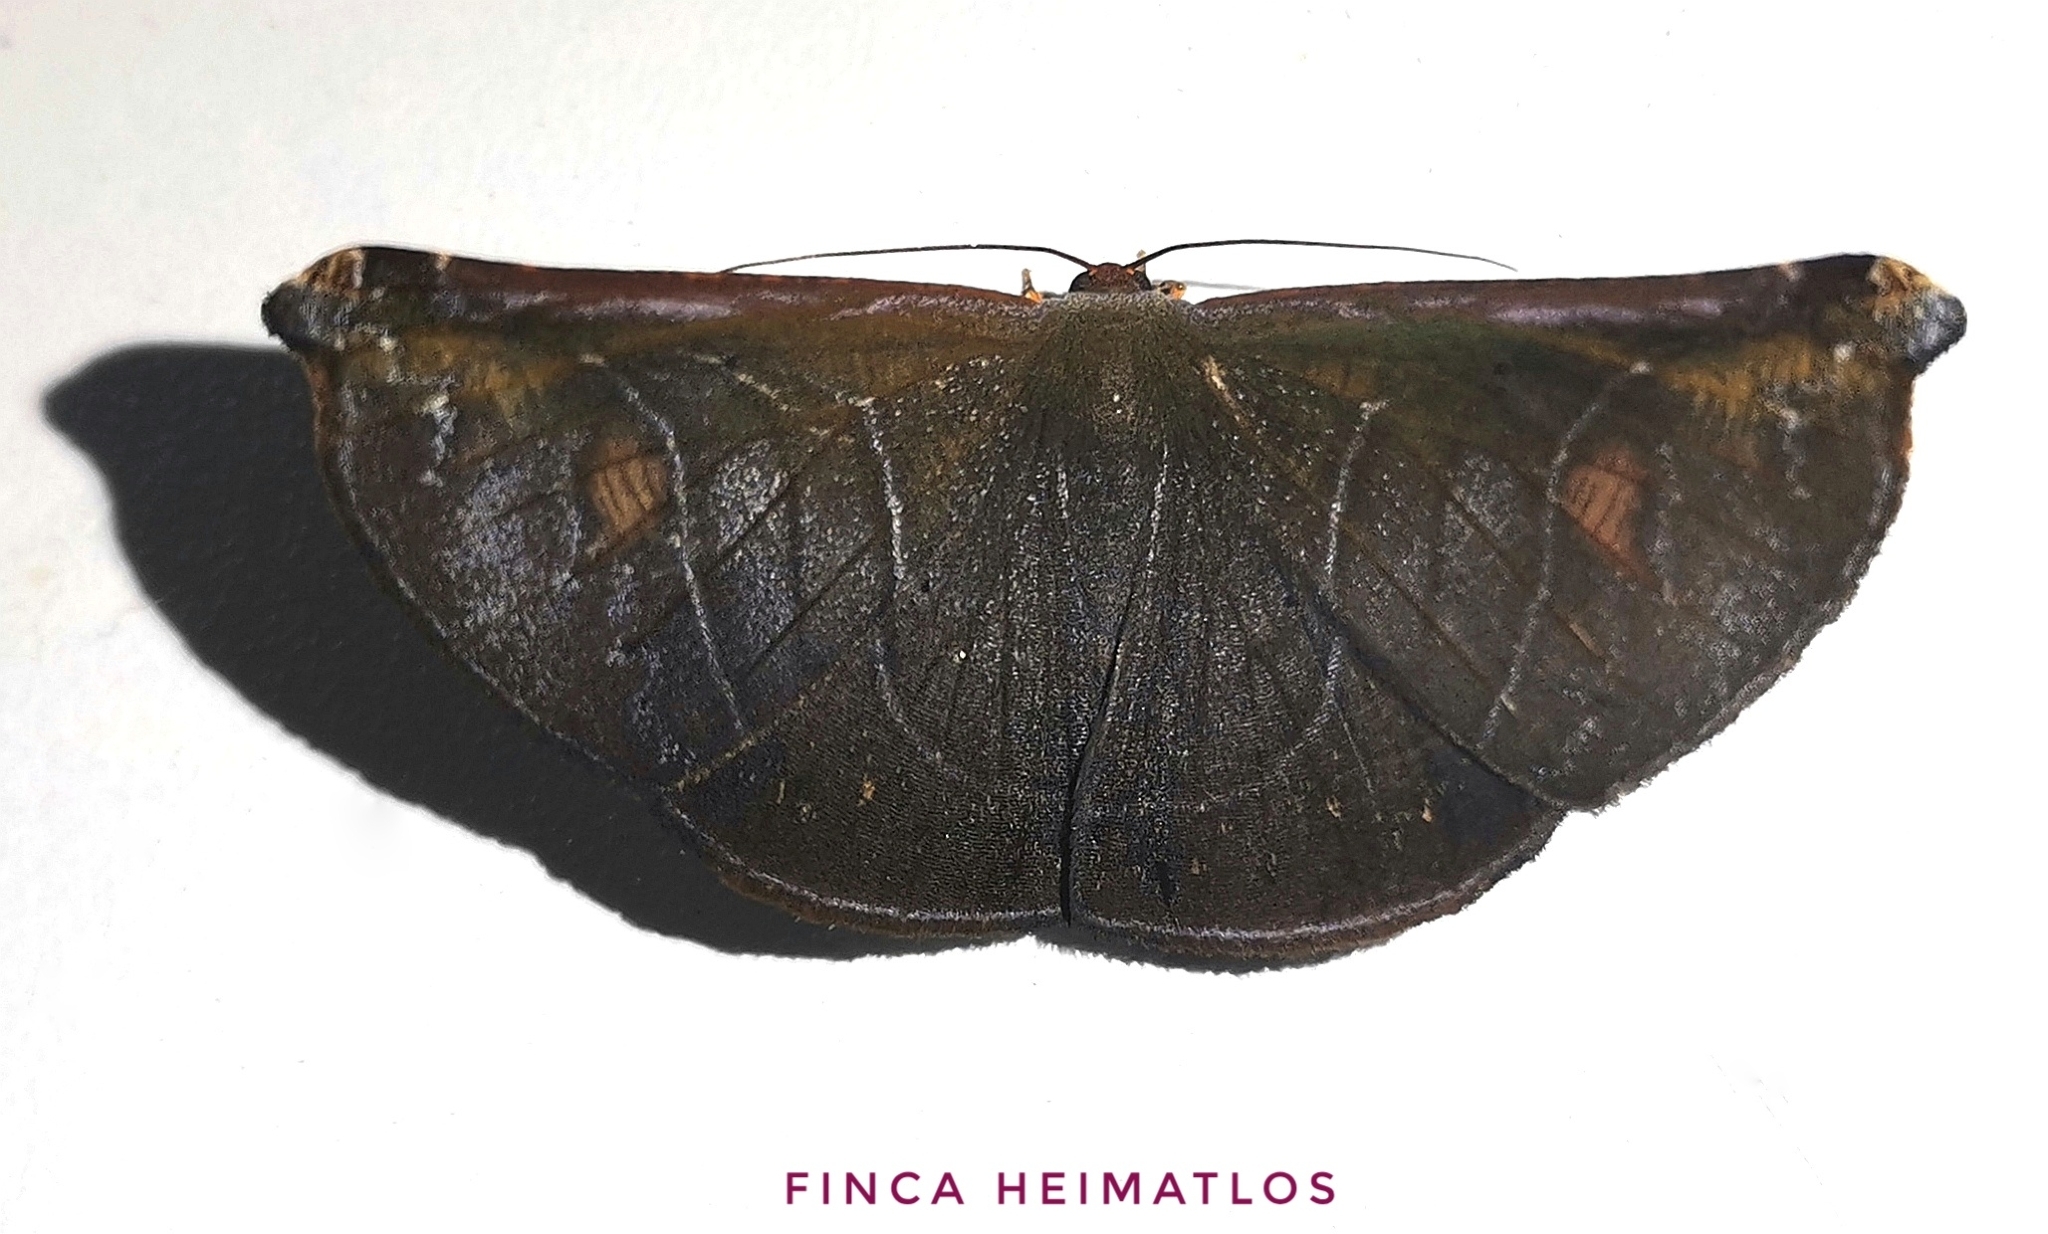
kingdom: Animalia
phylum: Arthropoda
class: Insecta
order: Lepidoptera
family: Geometridae
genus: Cyphoedma
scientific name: Cyphoedma
